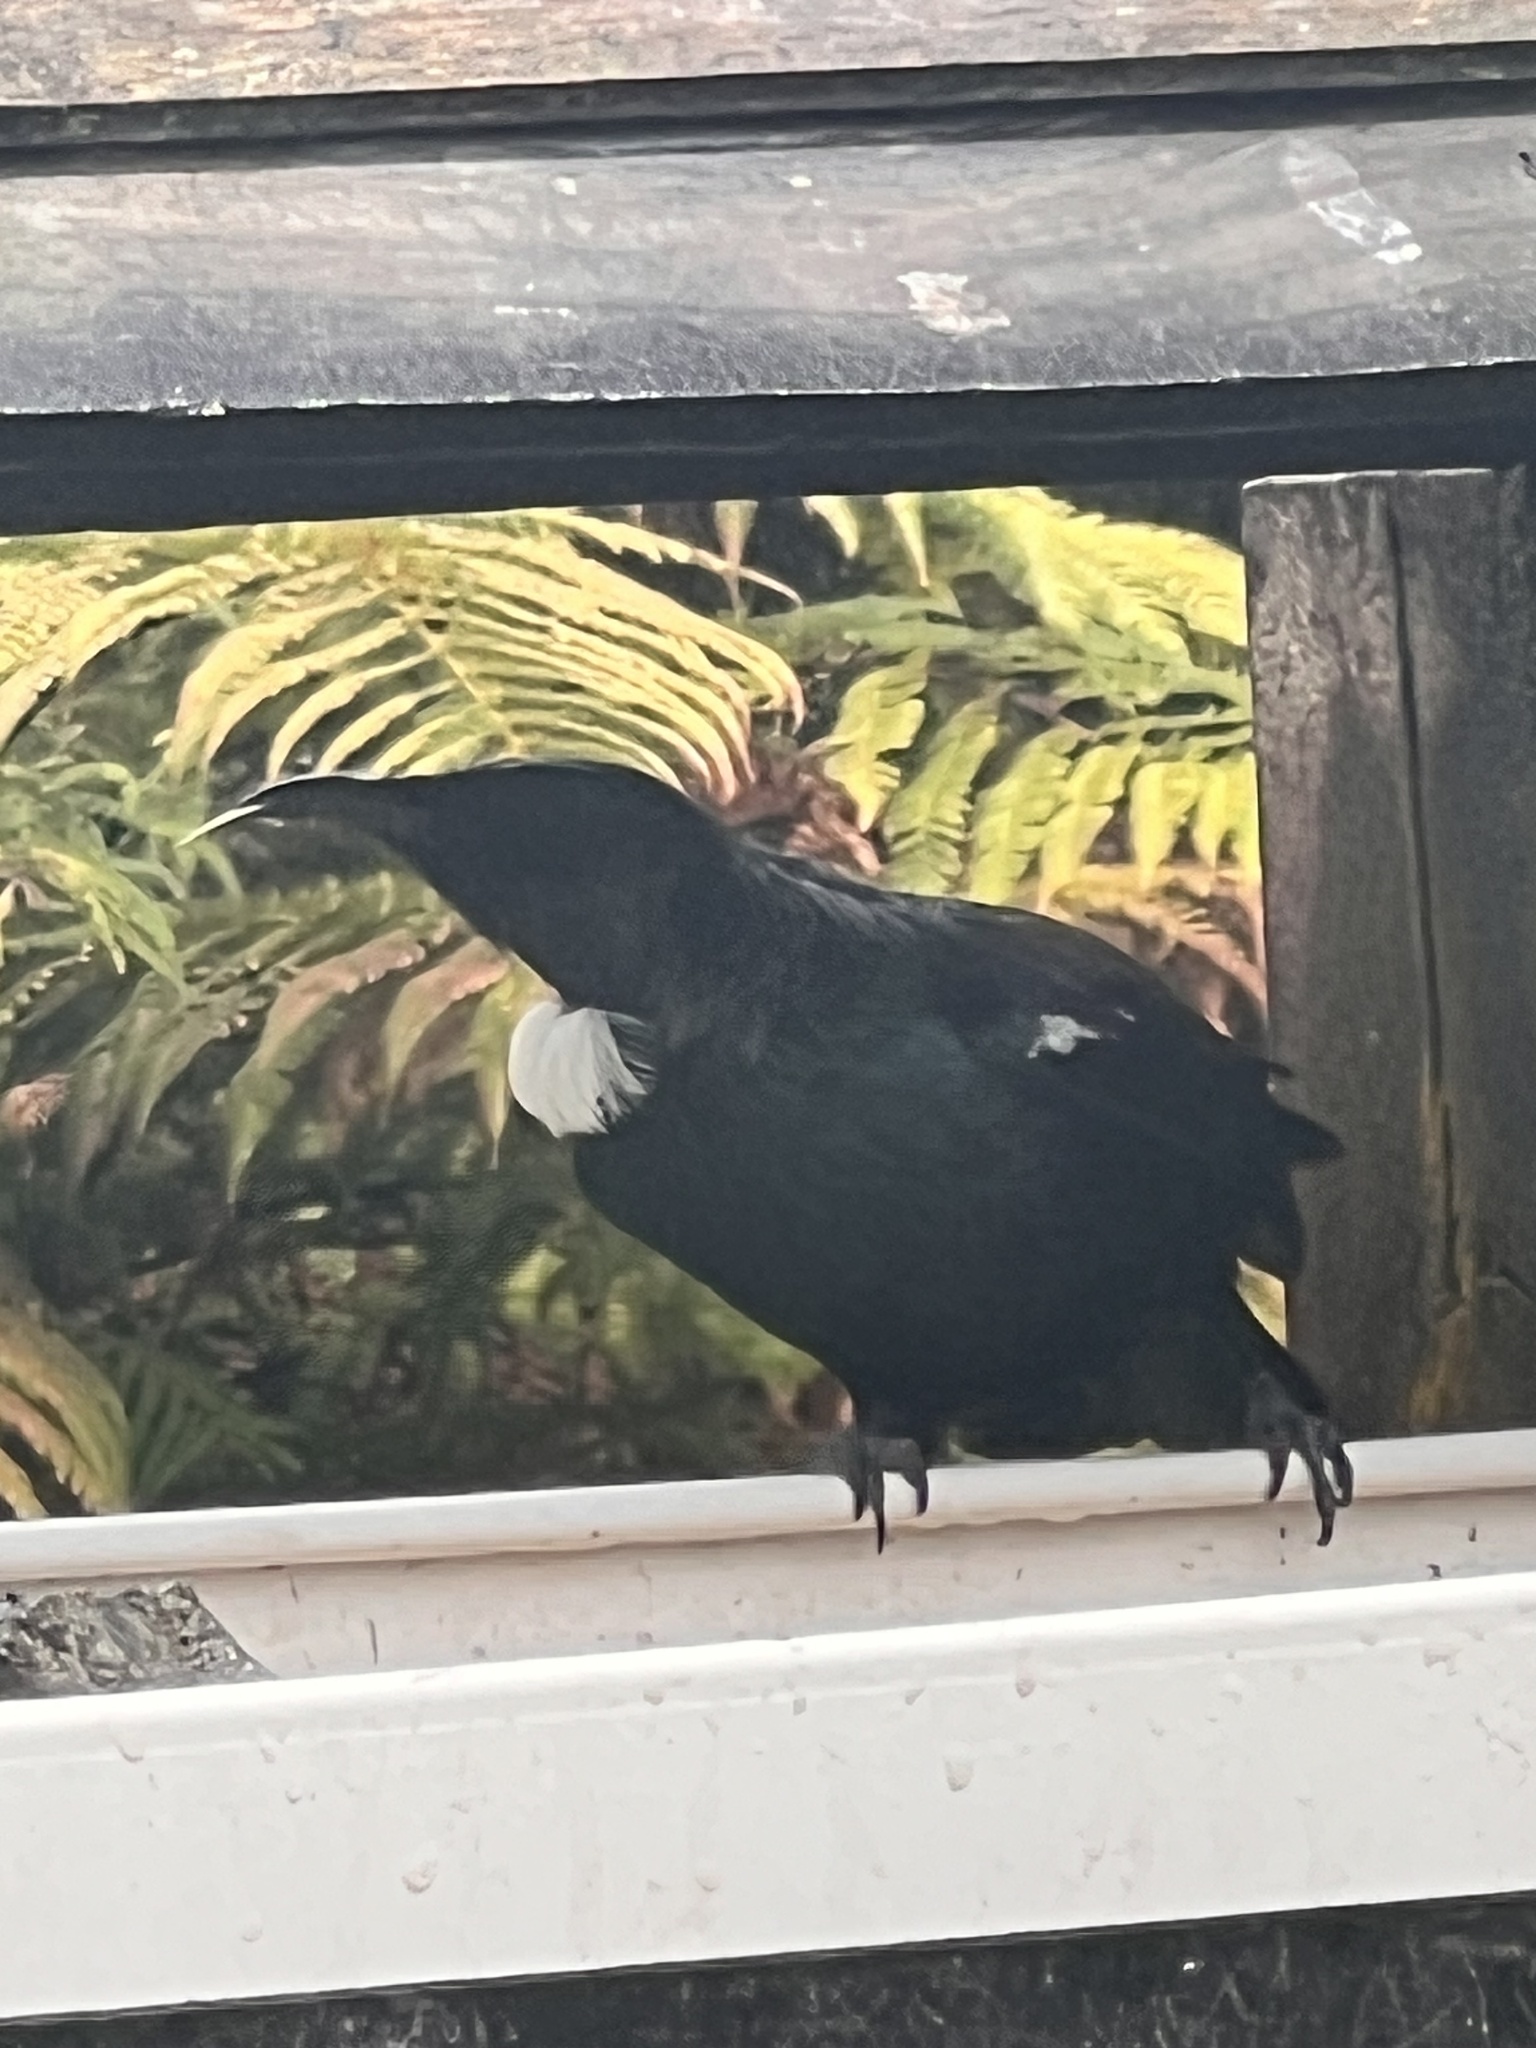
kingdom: Animalia
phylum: Chordata
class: Aves
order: Passeriformes
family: Meliphagidae
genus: Prosthemadera
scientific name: Prosthemadera novaeseelandiae
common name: Tui
